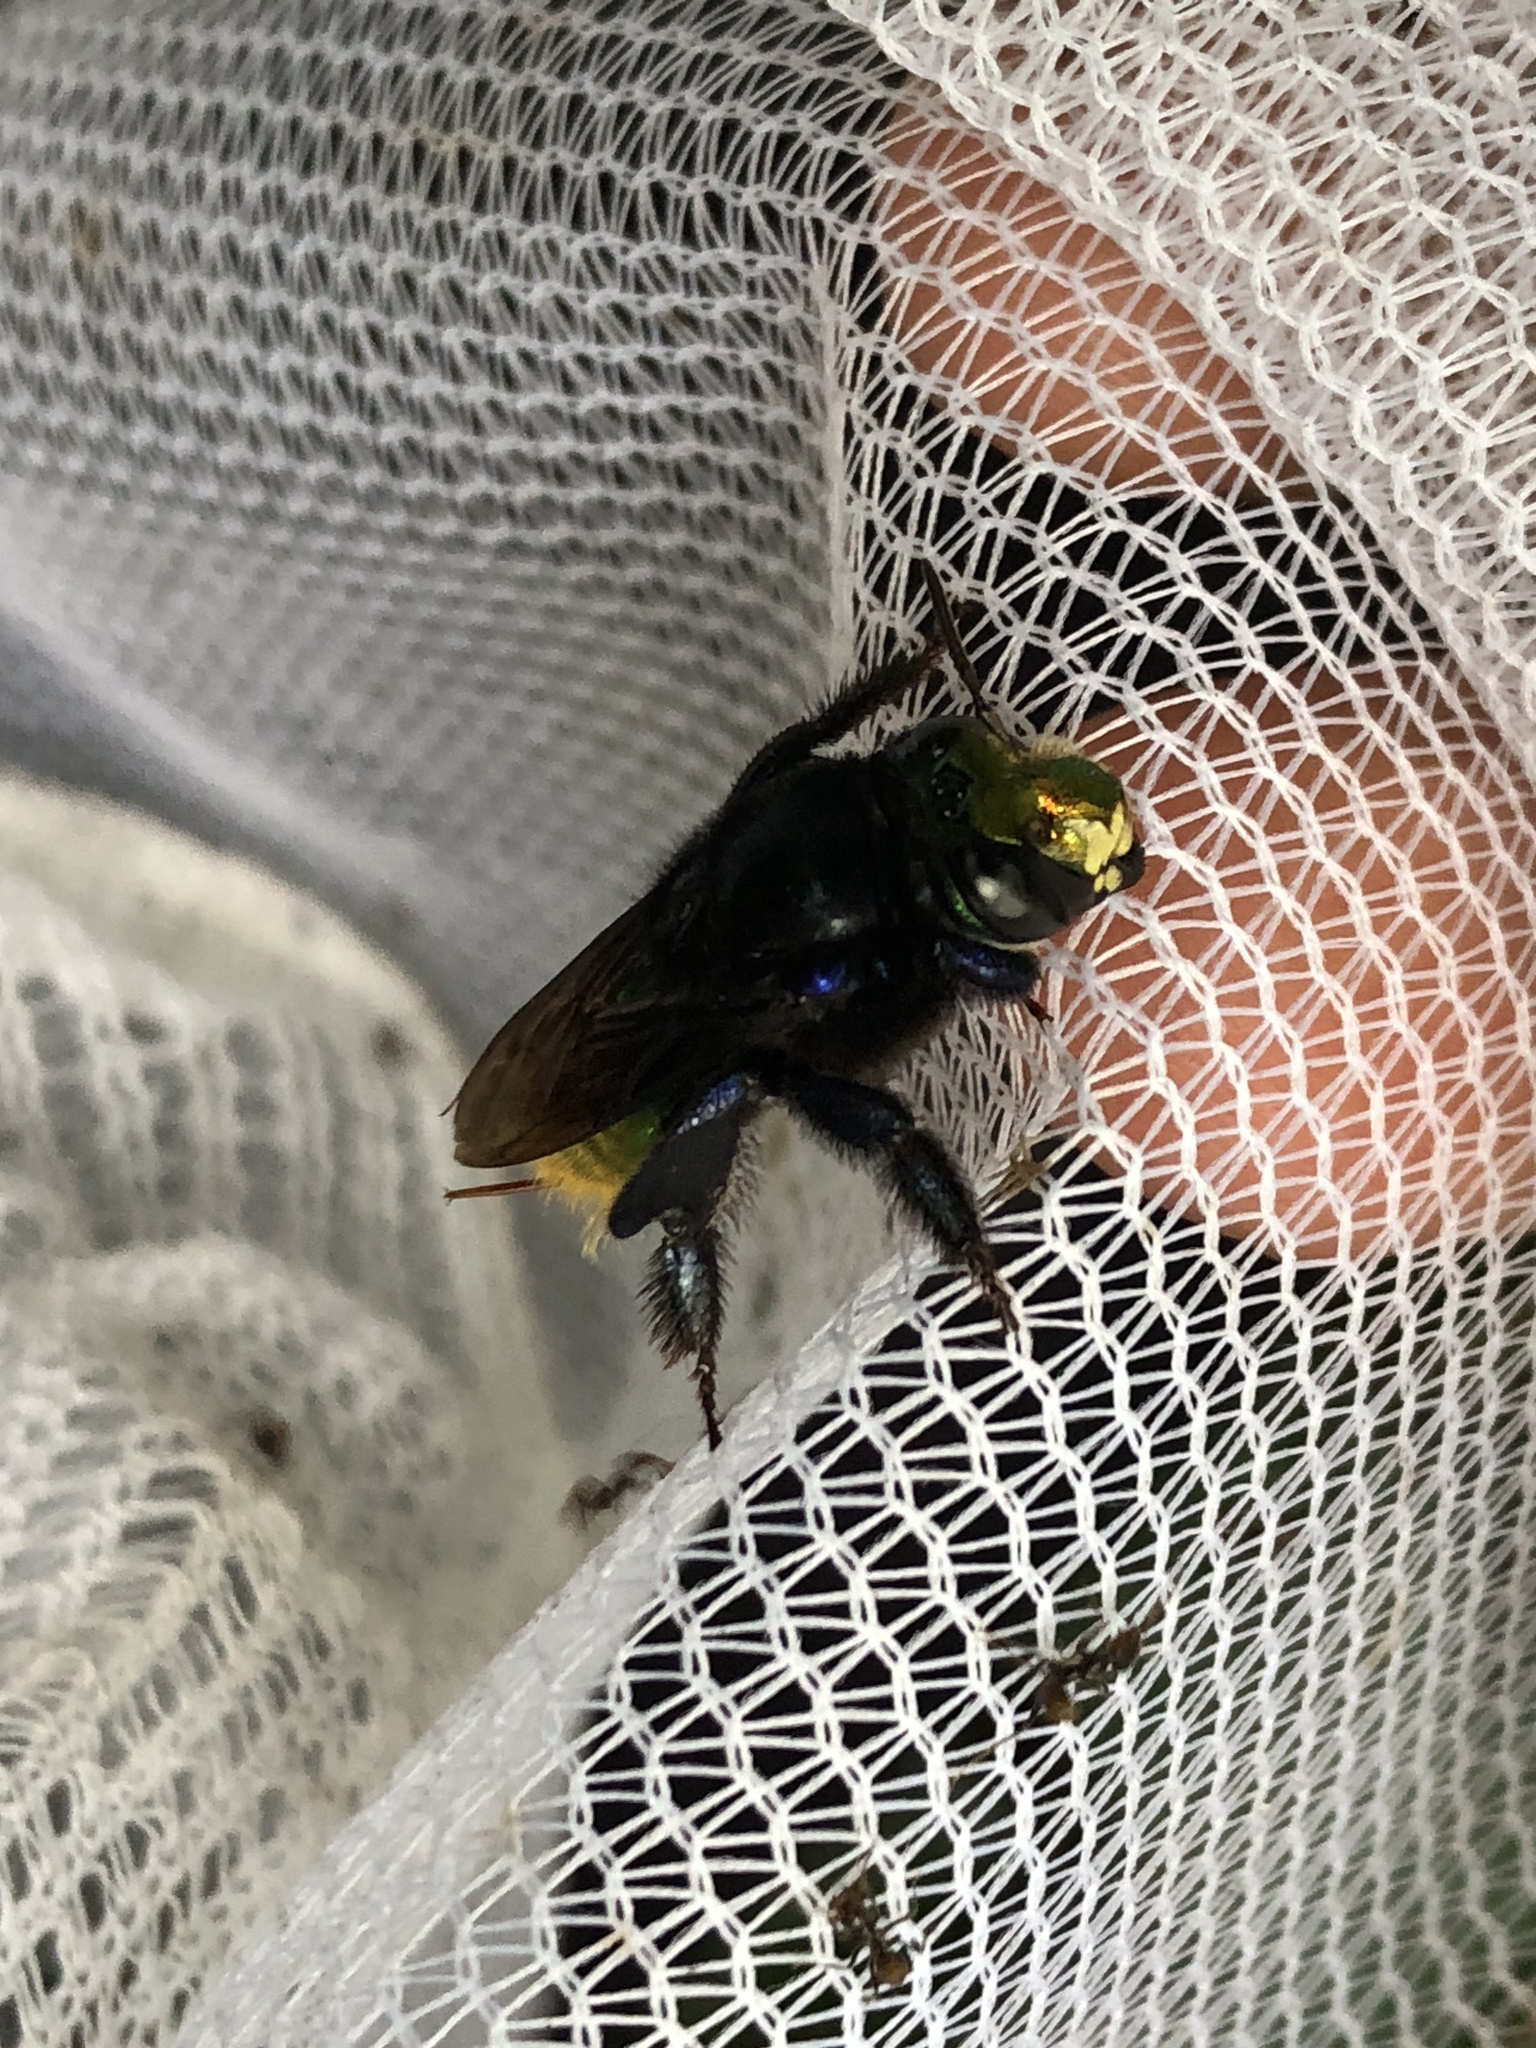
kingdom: Animalia
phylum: Arthropoda
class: Insecta
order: Hymenoptera
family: Apidae
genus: Euglossa
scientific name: Euglossa intersecta
